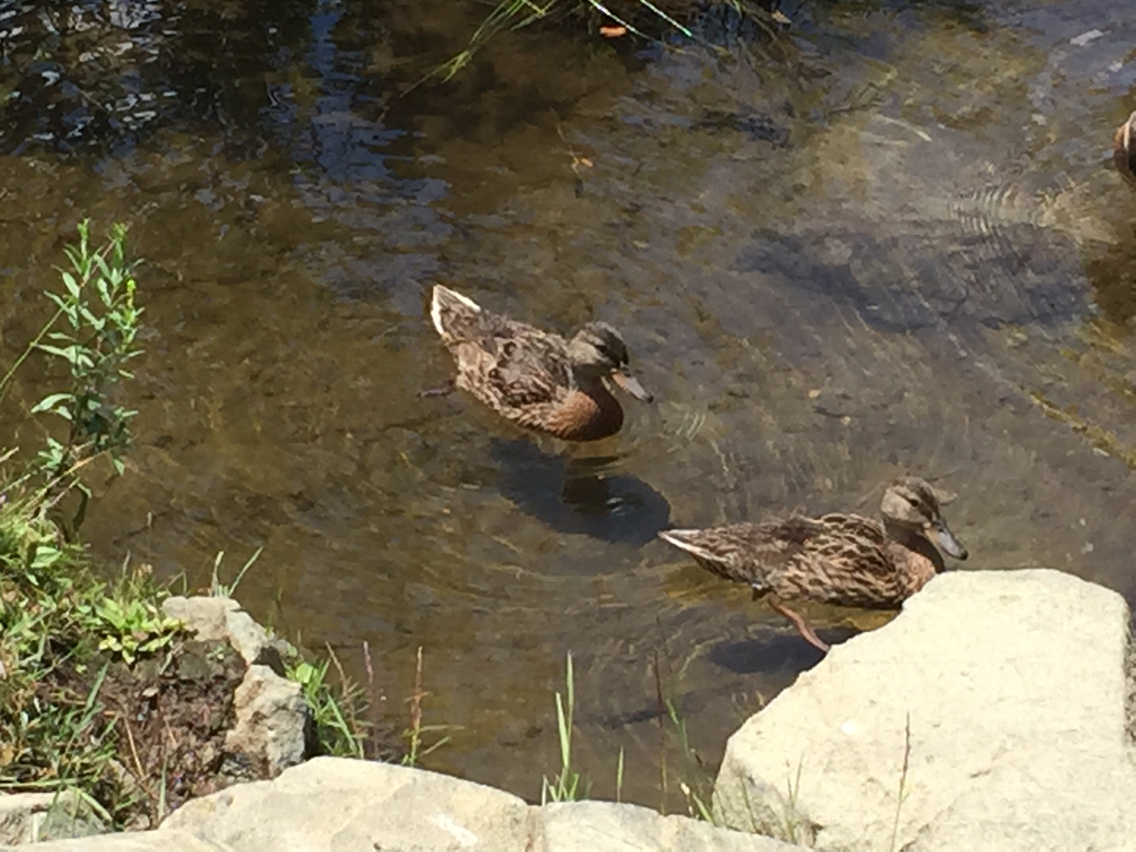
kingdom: Animalia
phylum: Chordata
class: Aves
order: Anseriformes
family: Anatidae
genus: Anas
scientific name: Anas platyrhynchos
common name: Mallard
